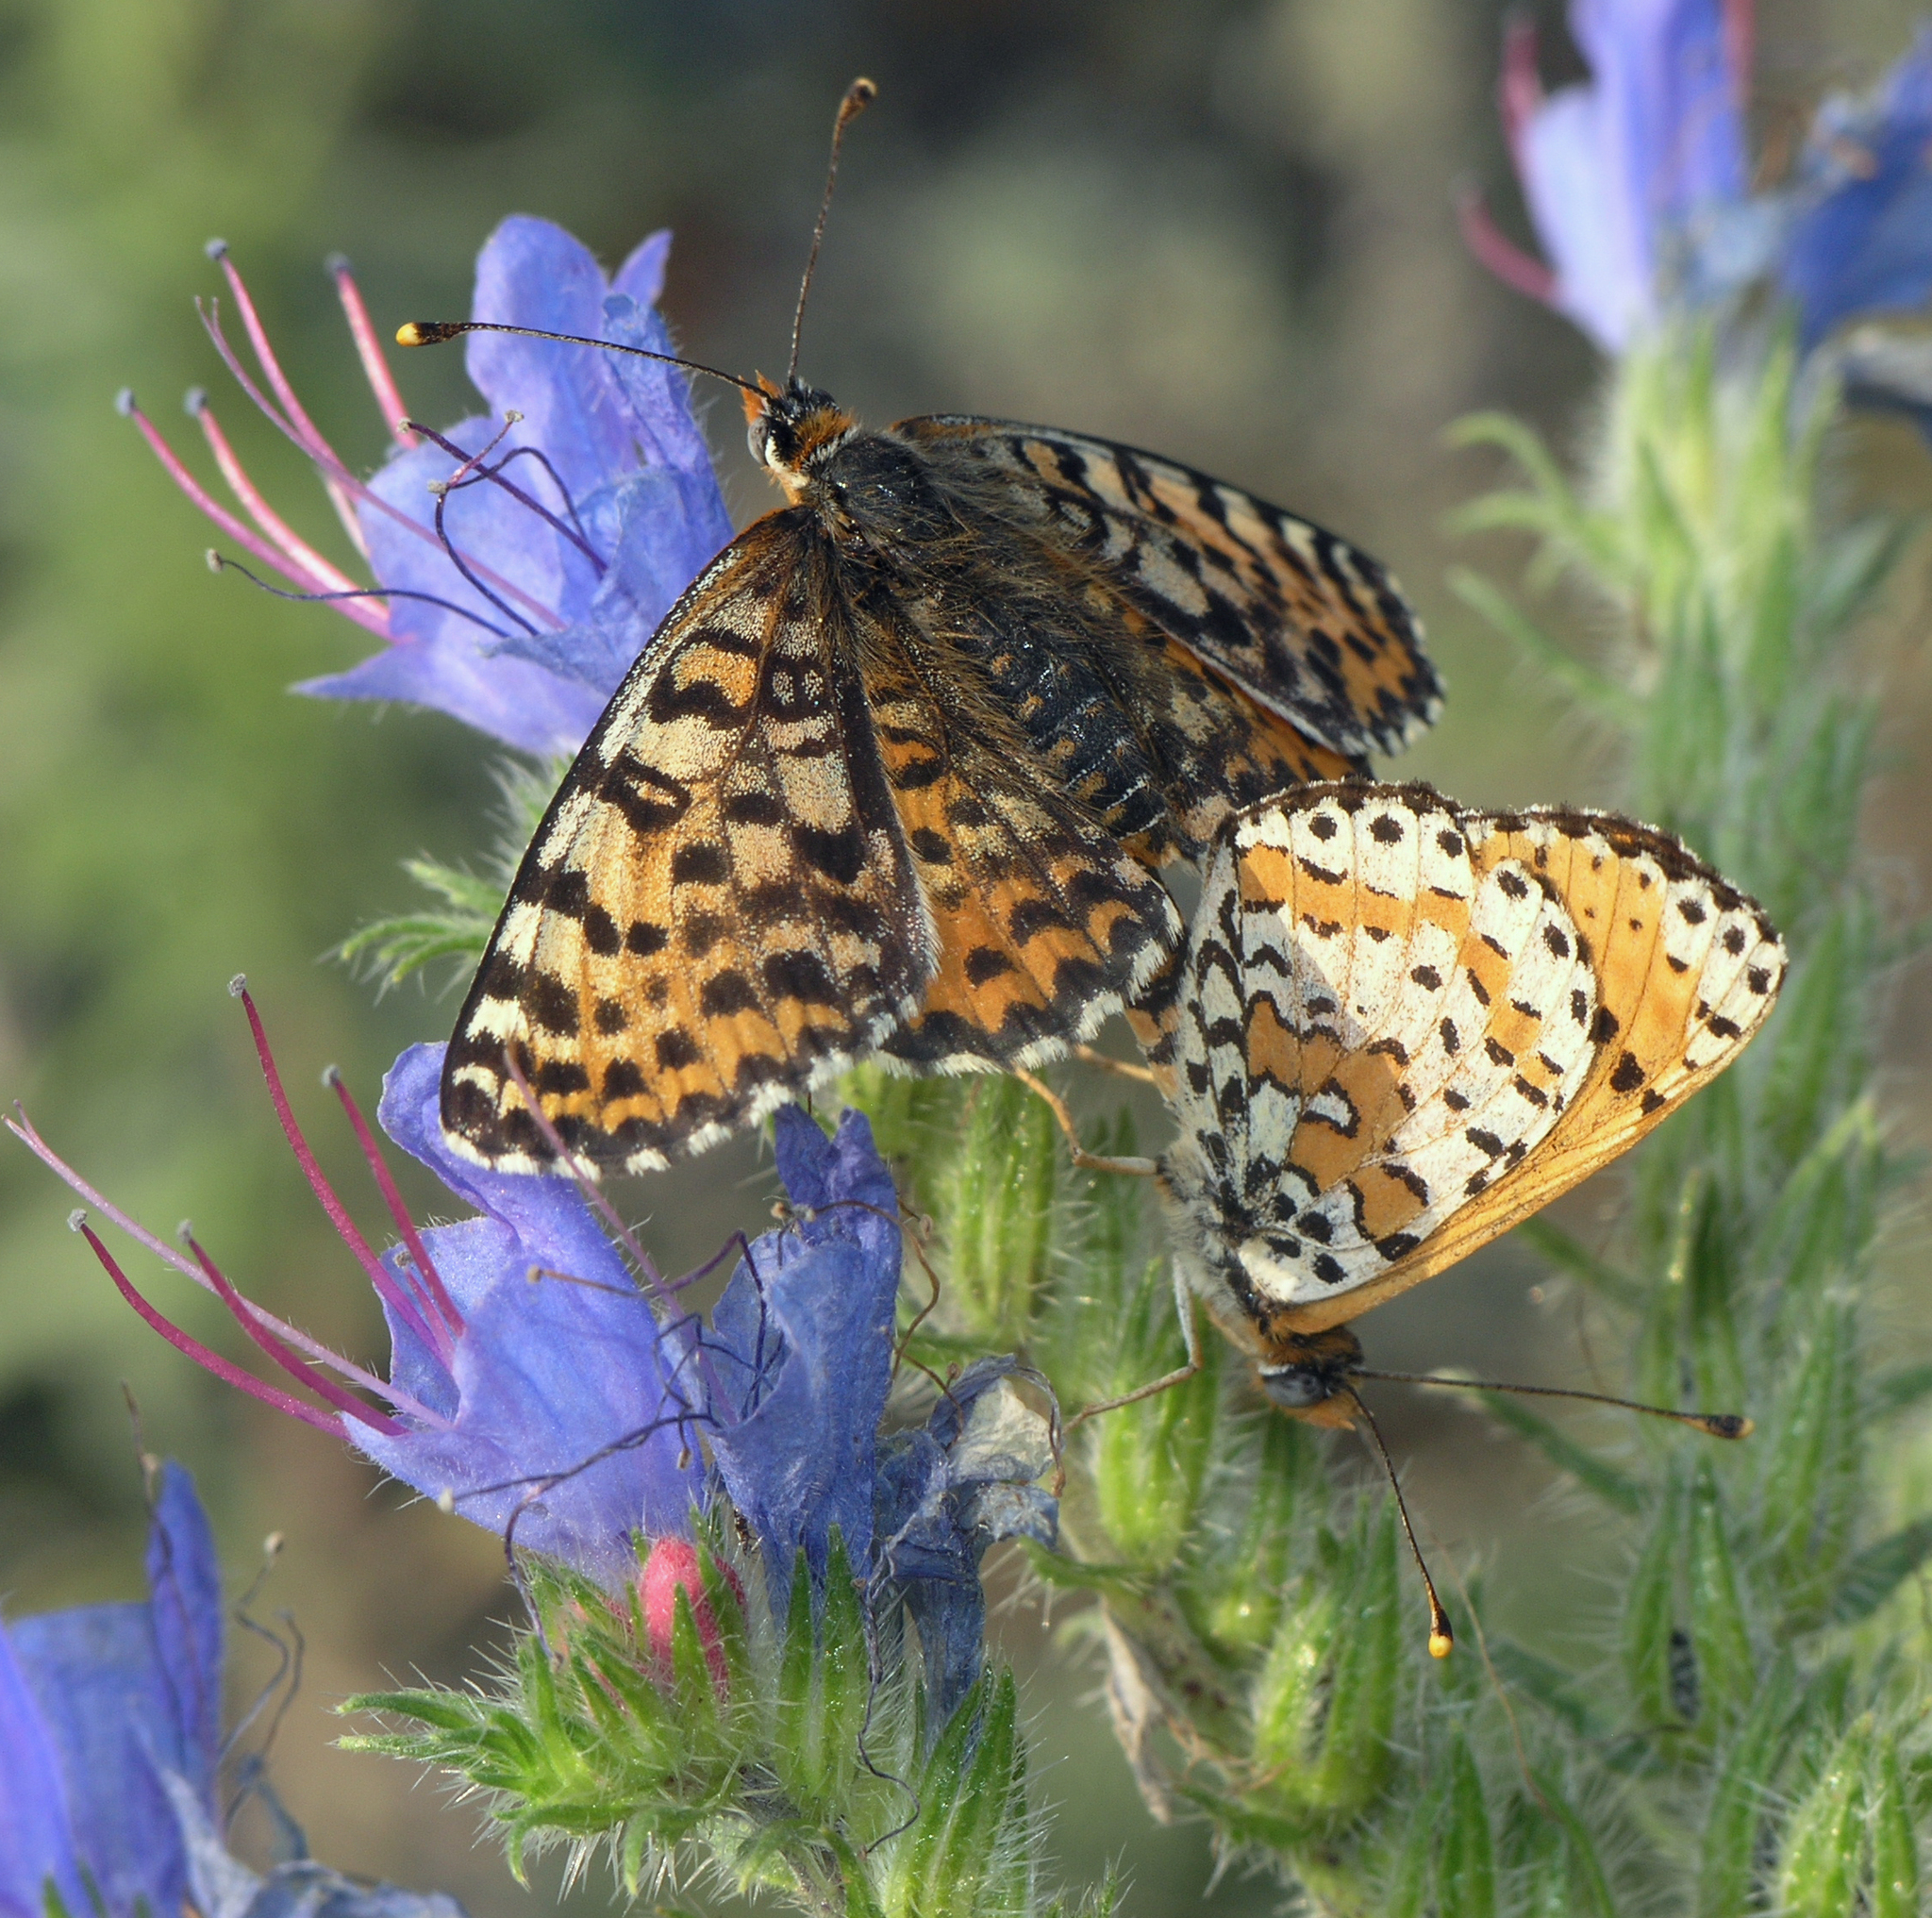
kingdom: Plantae
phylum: Tracheophyta
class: Magnoliopsida
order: Boraginales
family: Boraginaceae
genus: Echium
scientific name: Echium vulgare
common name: Common viper's bugloss
